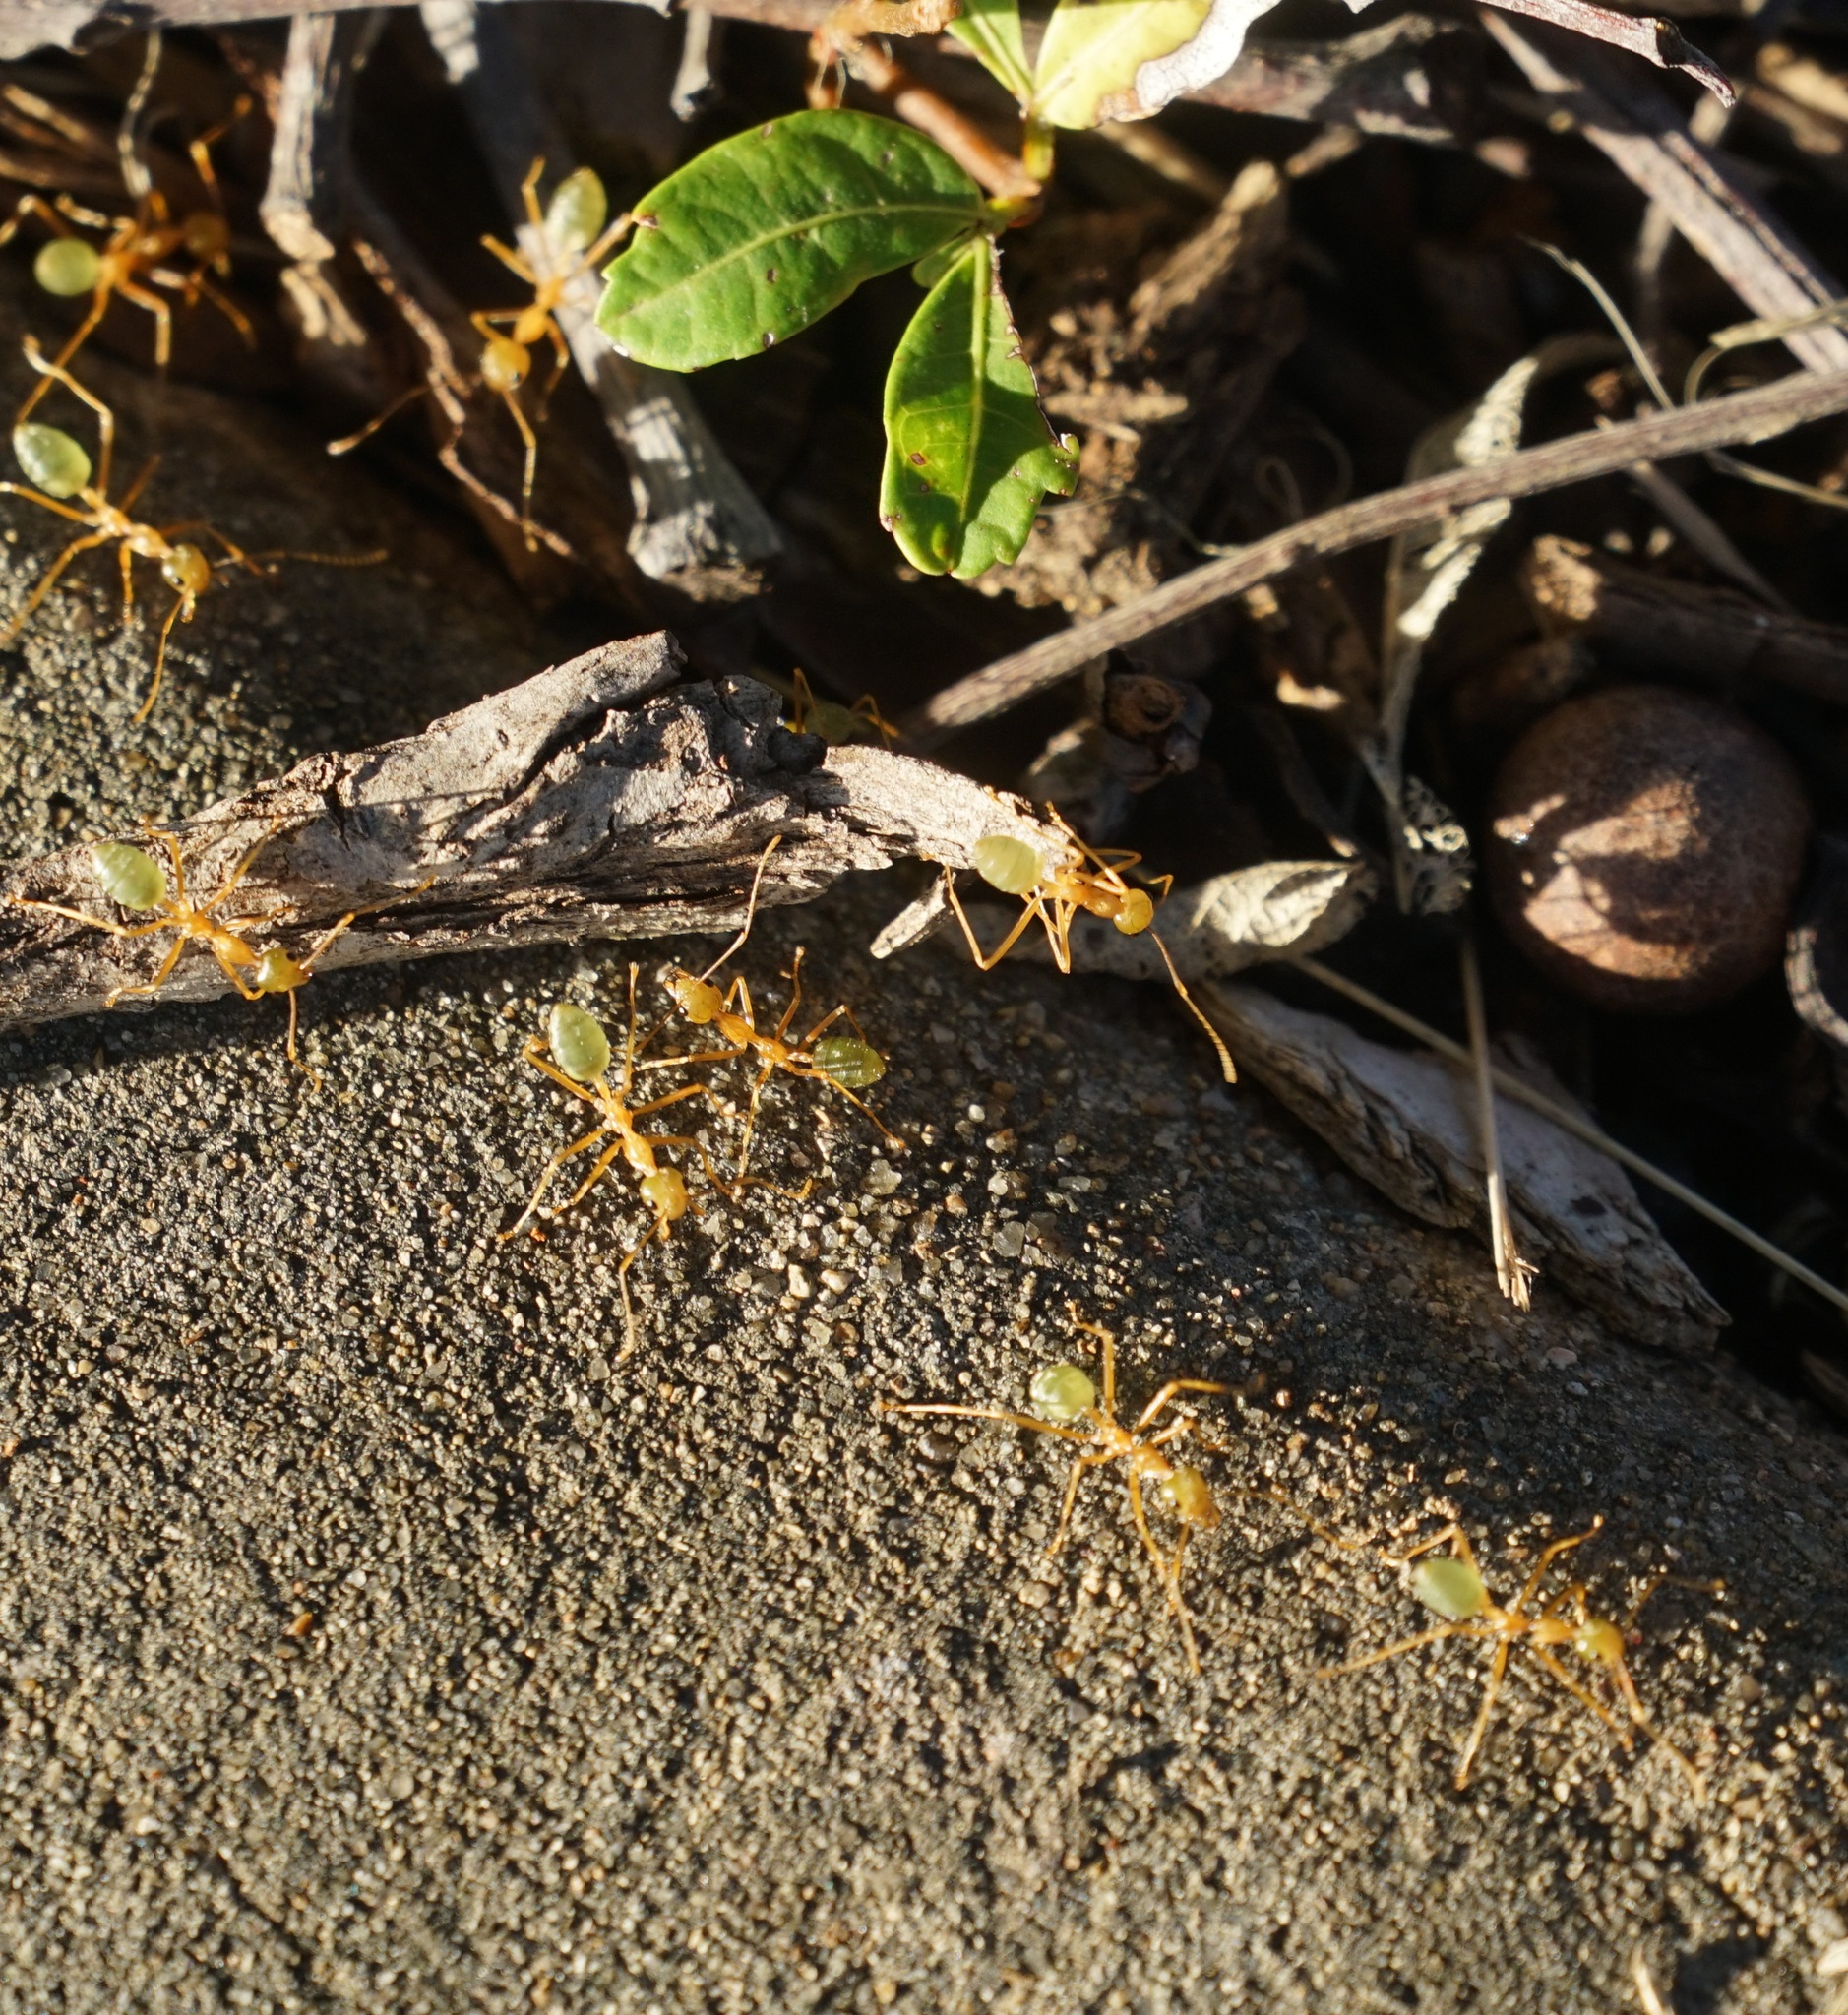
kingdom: Animalia
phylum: Arthropoda
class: Insecta
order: Hymenoptera
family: Formicidae
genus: Oecophylla
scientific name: Oecophylla smaragdina
